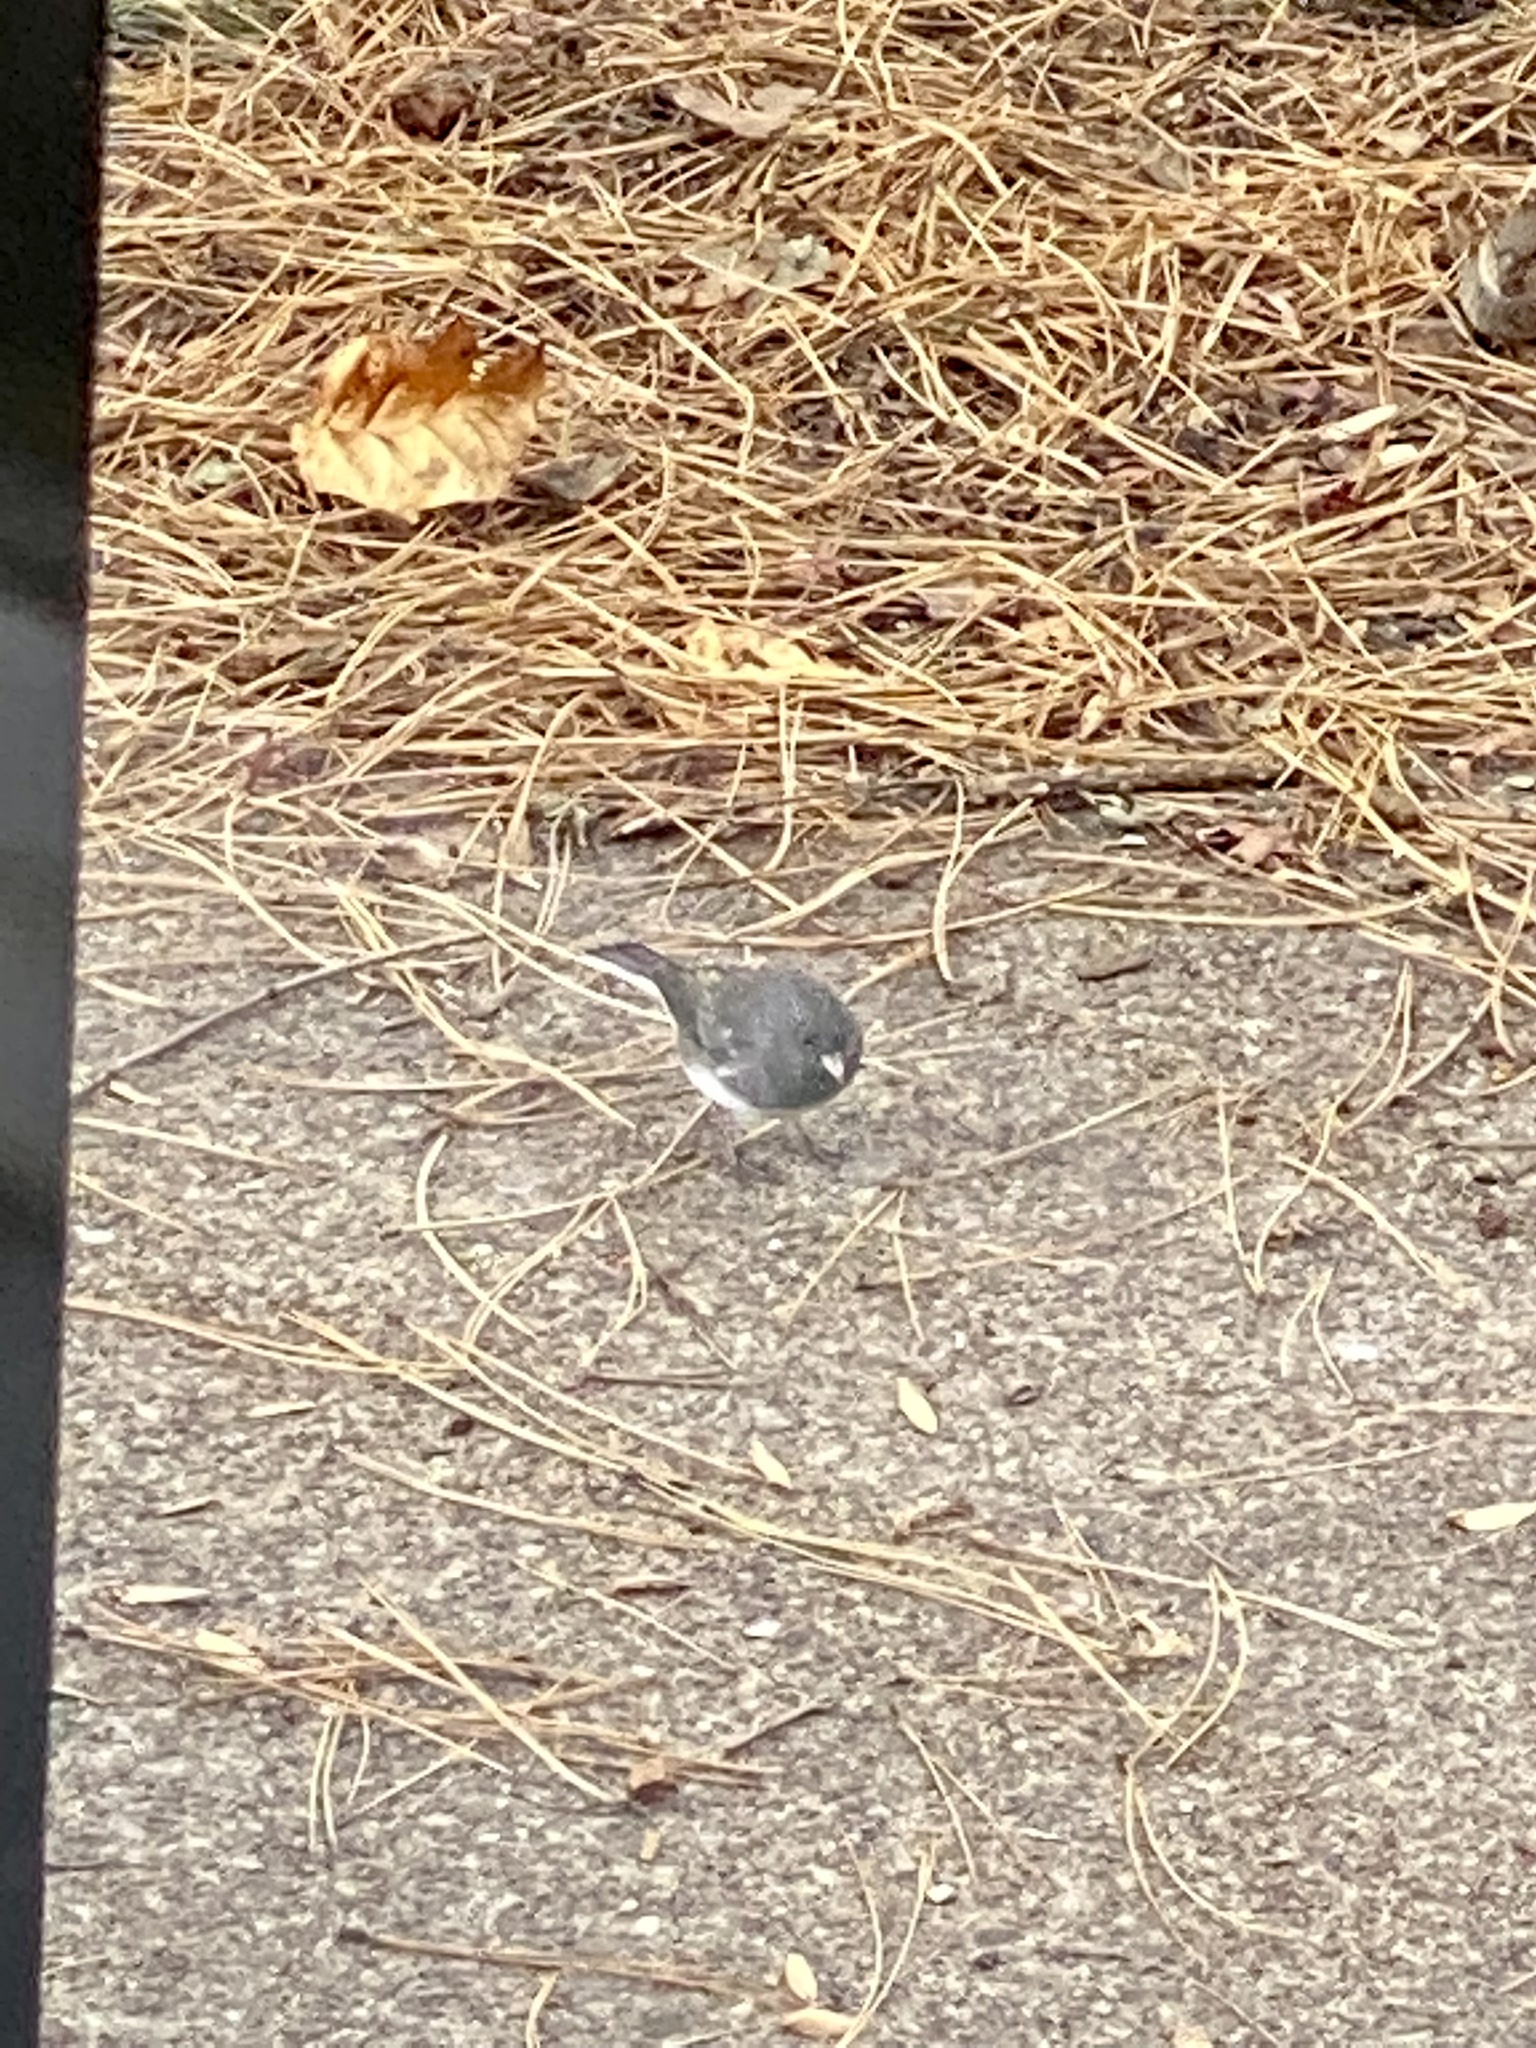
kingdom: Animalia
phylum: Chordata
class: Aves
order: Passeriformes
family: Passerellidae
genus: Junco
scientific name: Junco hyemalis
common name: Dark-eyed junco
